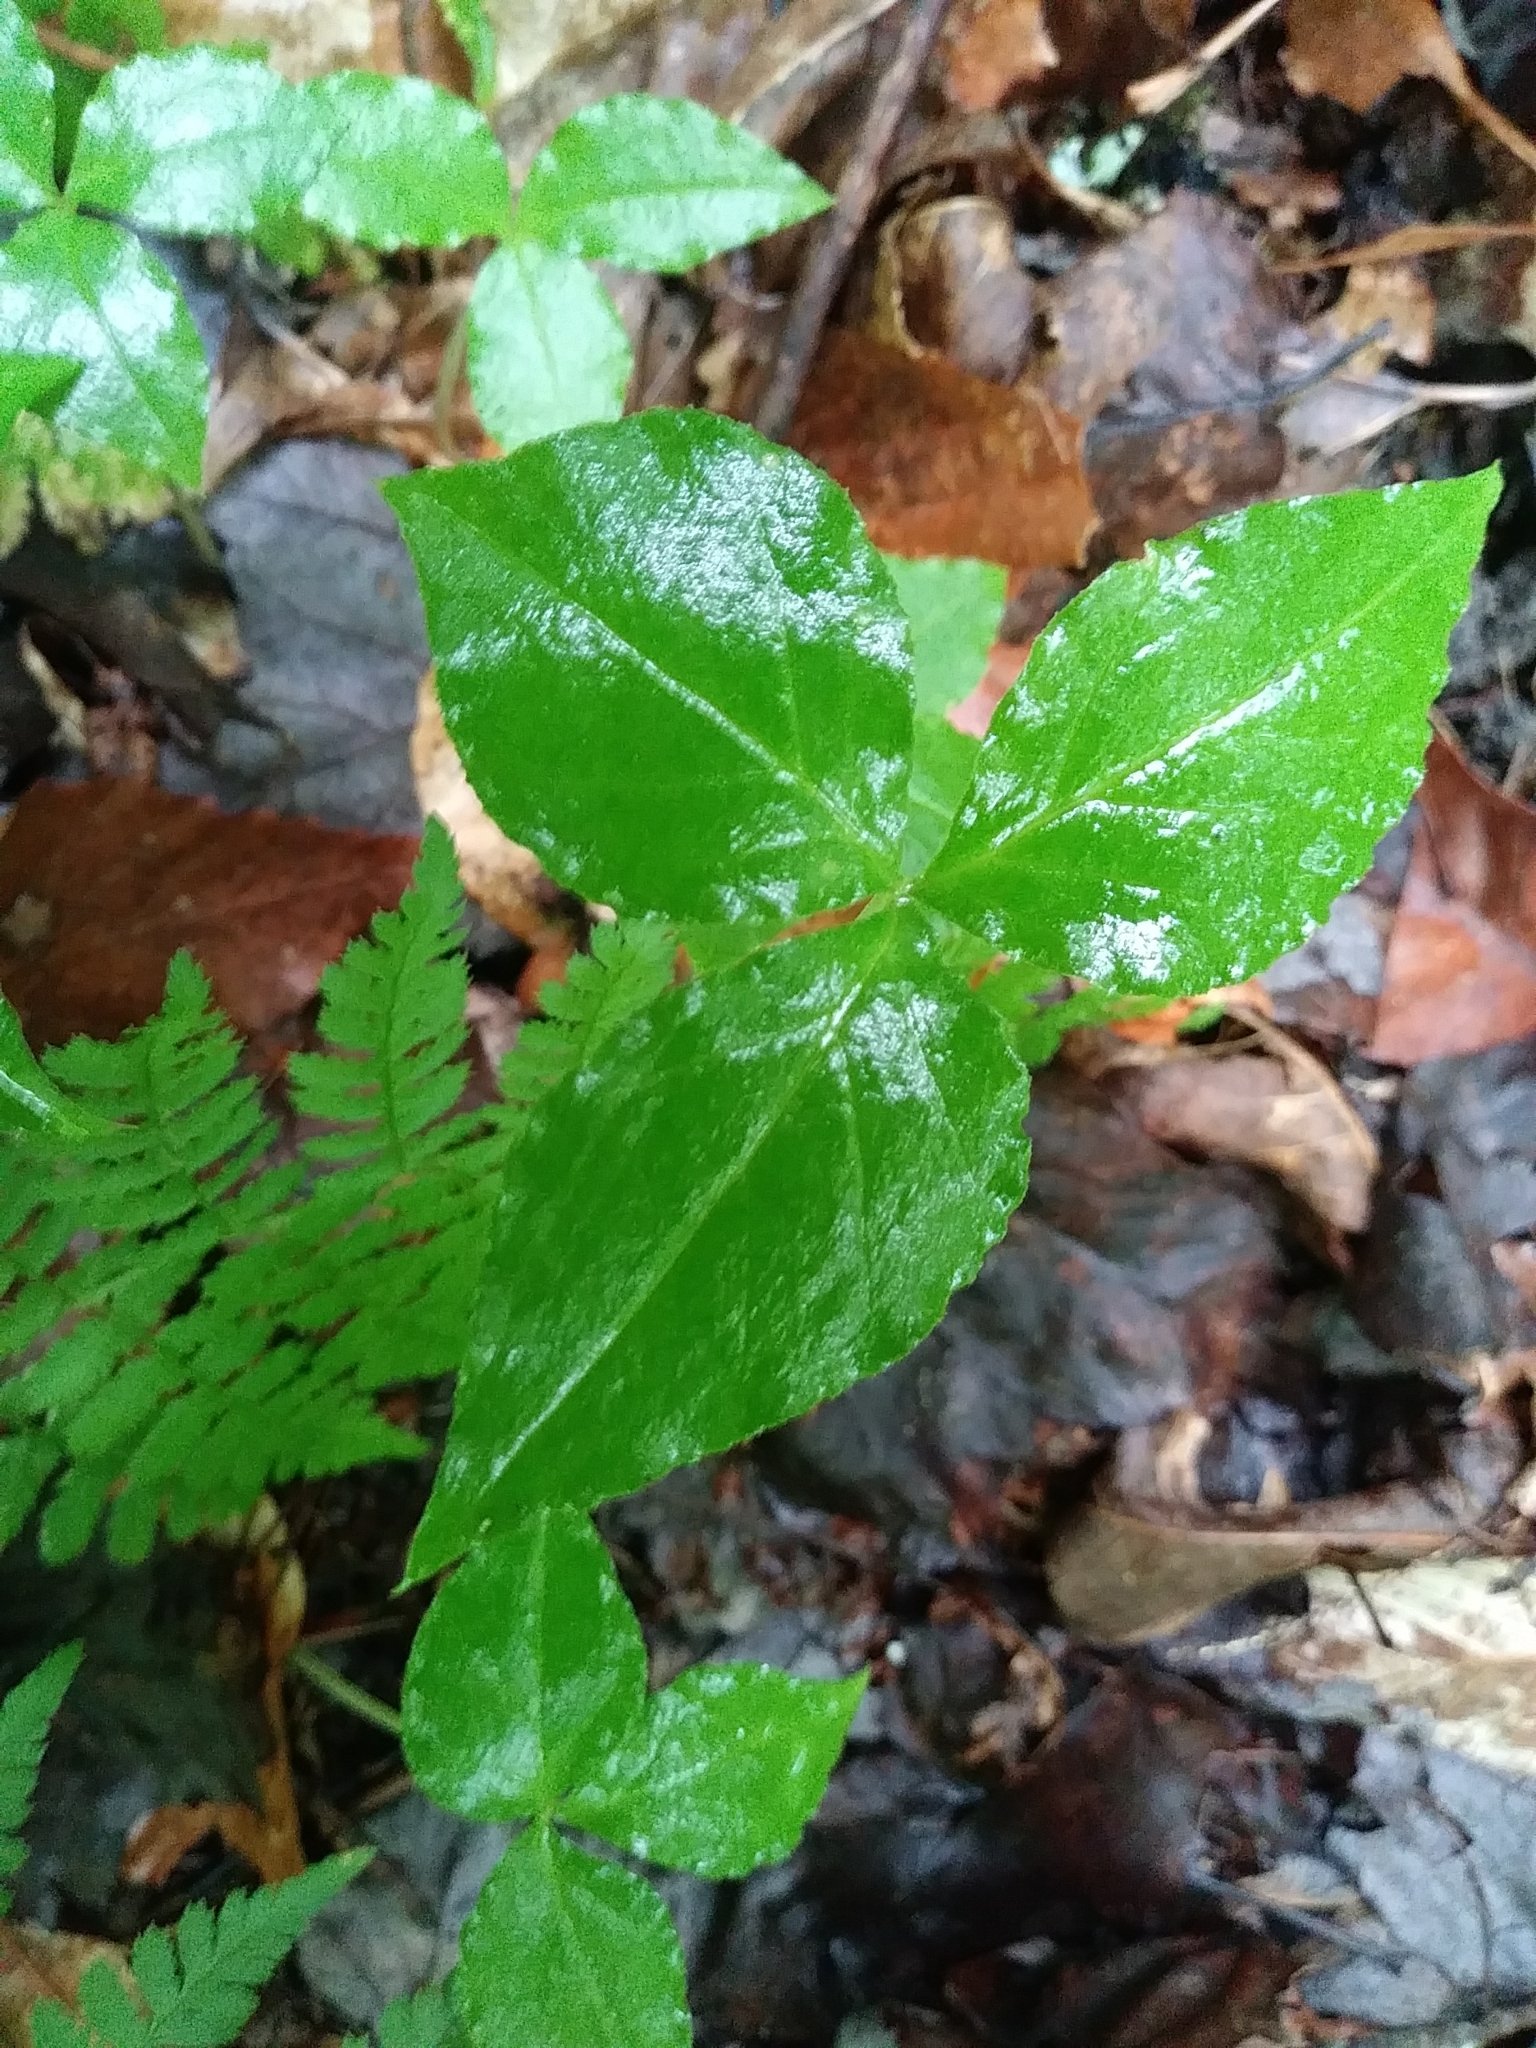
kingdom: Plantae
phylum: Tracheophyta
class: Liliopsida
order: Alismatales
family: Araceae
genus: Arisaema
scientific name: Arisaema triphyllum
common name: Jack-in-the-pulpit
